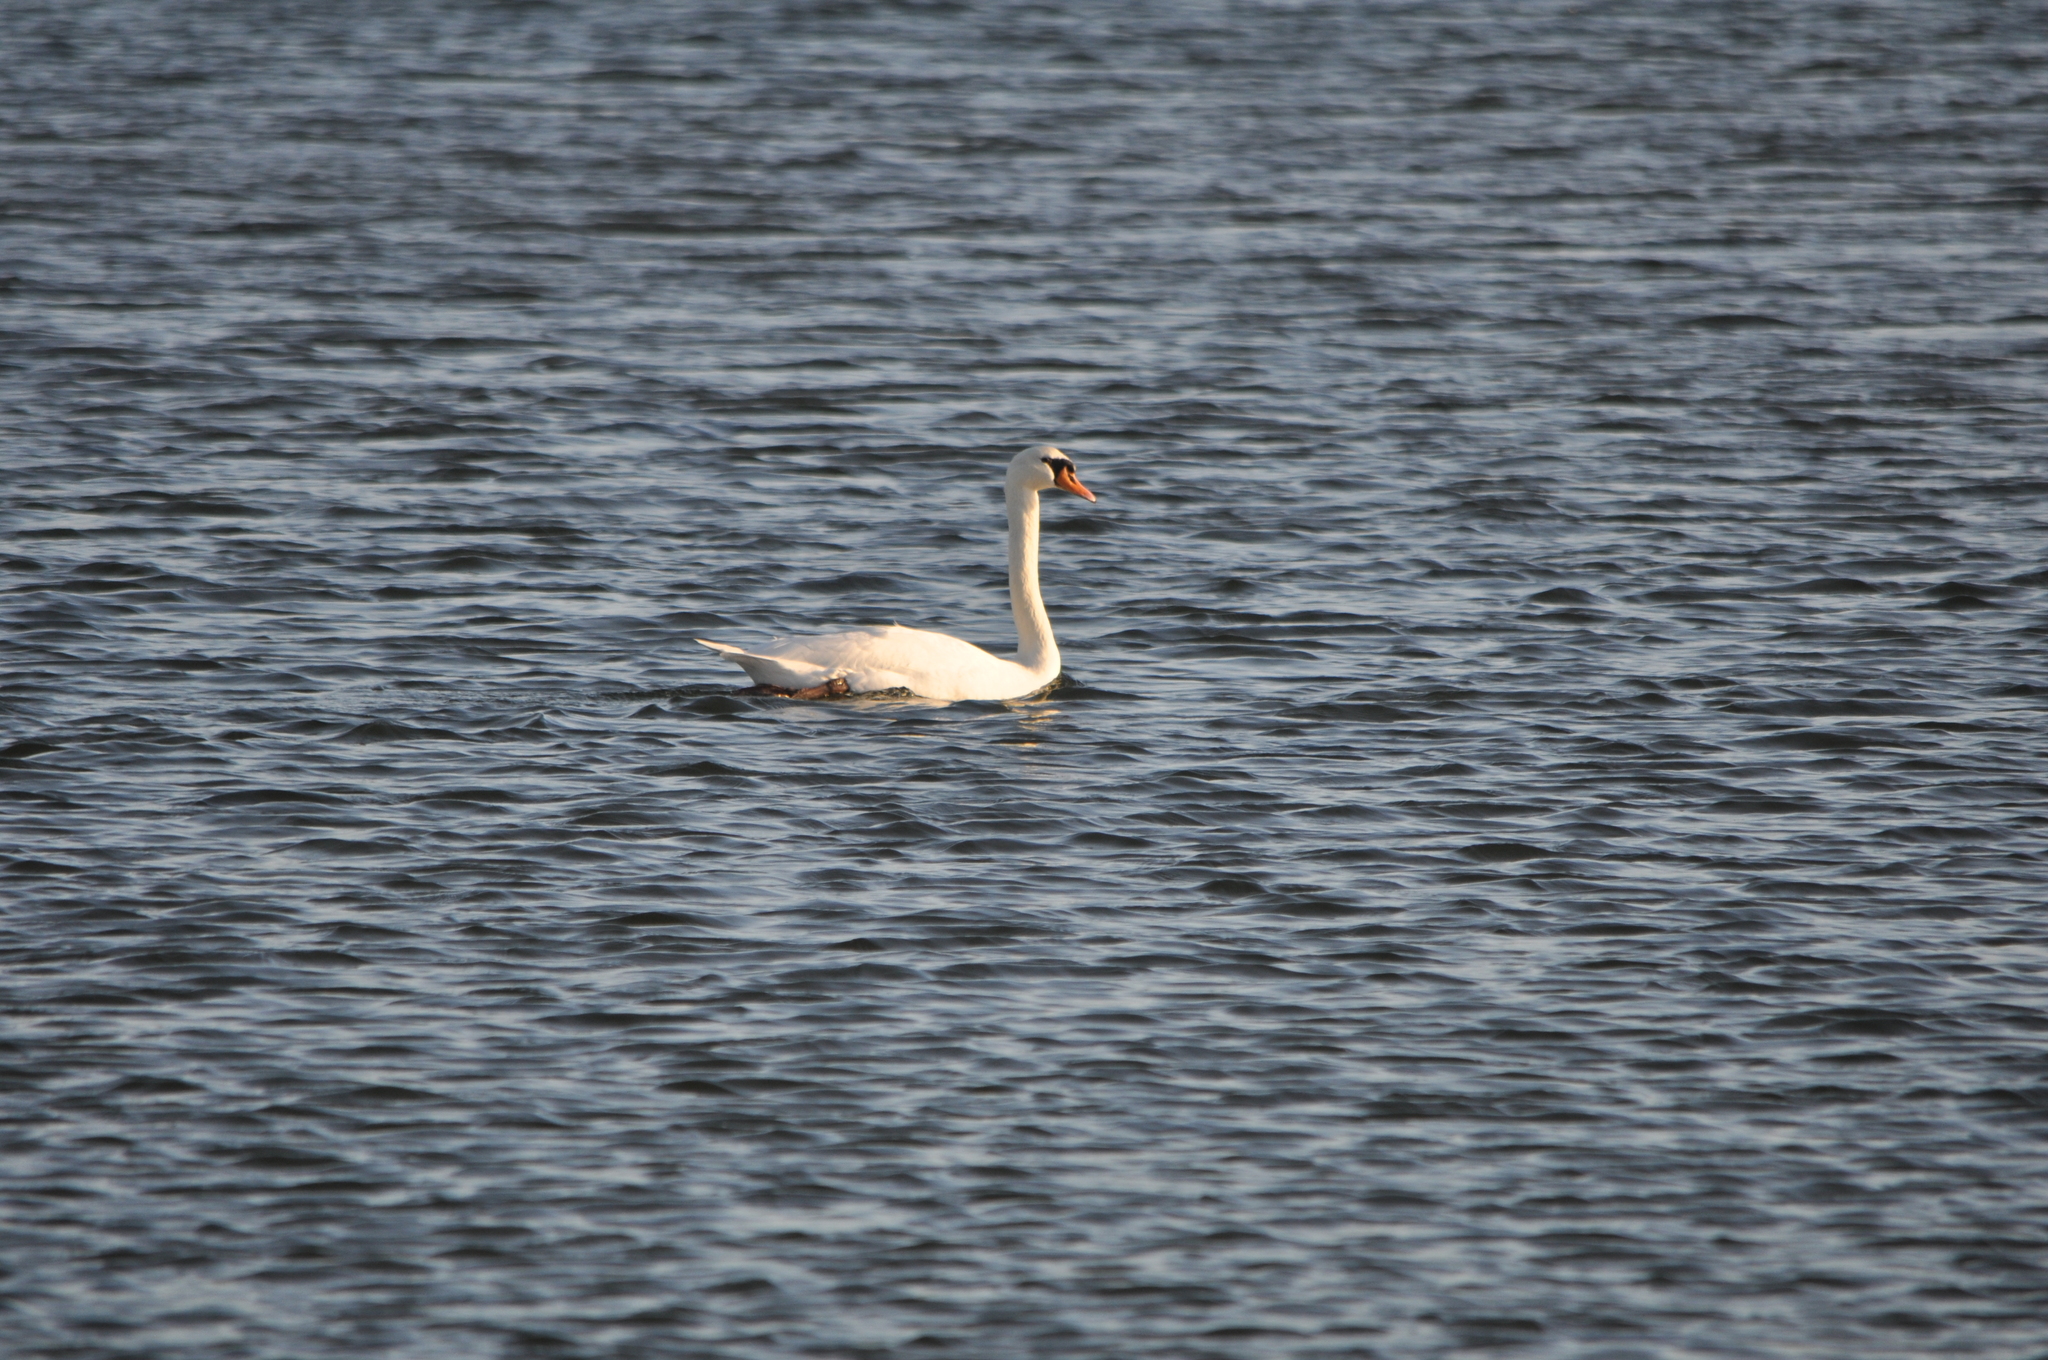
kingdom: Animalia
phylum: Chordata
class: Aves
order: Anseriformes
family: Anatidae
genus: Cygnus
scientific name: Cygnus olor
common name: Mute swan
